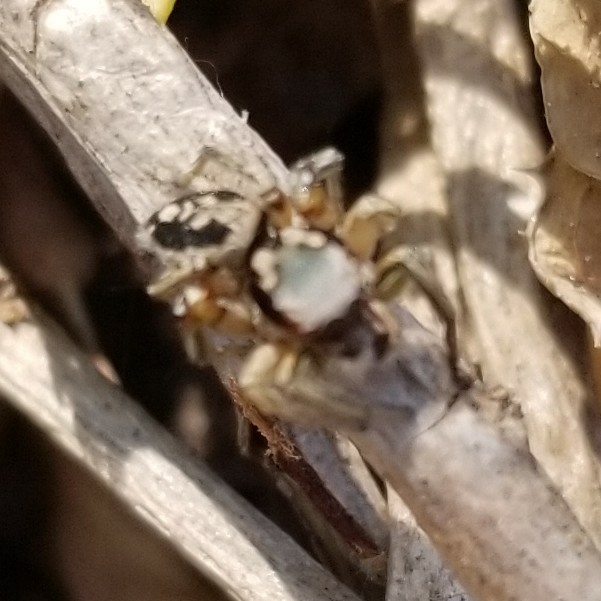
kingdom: Animalia
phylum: Arthropoda
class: Arachnida
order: Araneae
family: Salticidae
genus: Habronattus
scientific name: Habronattus pyrrithrix
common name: Jumping spider
